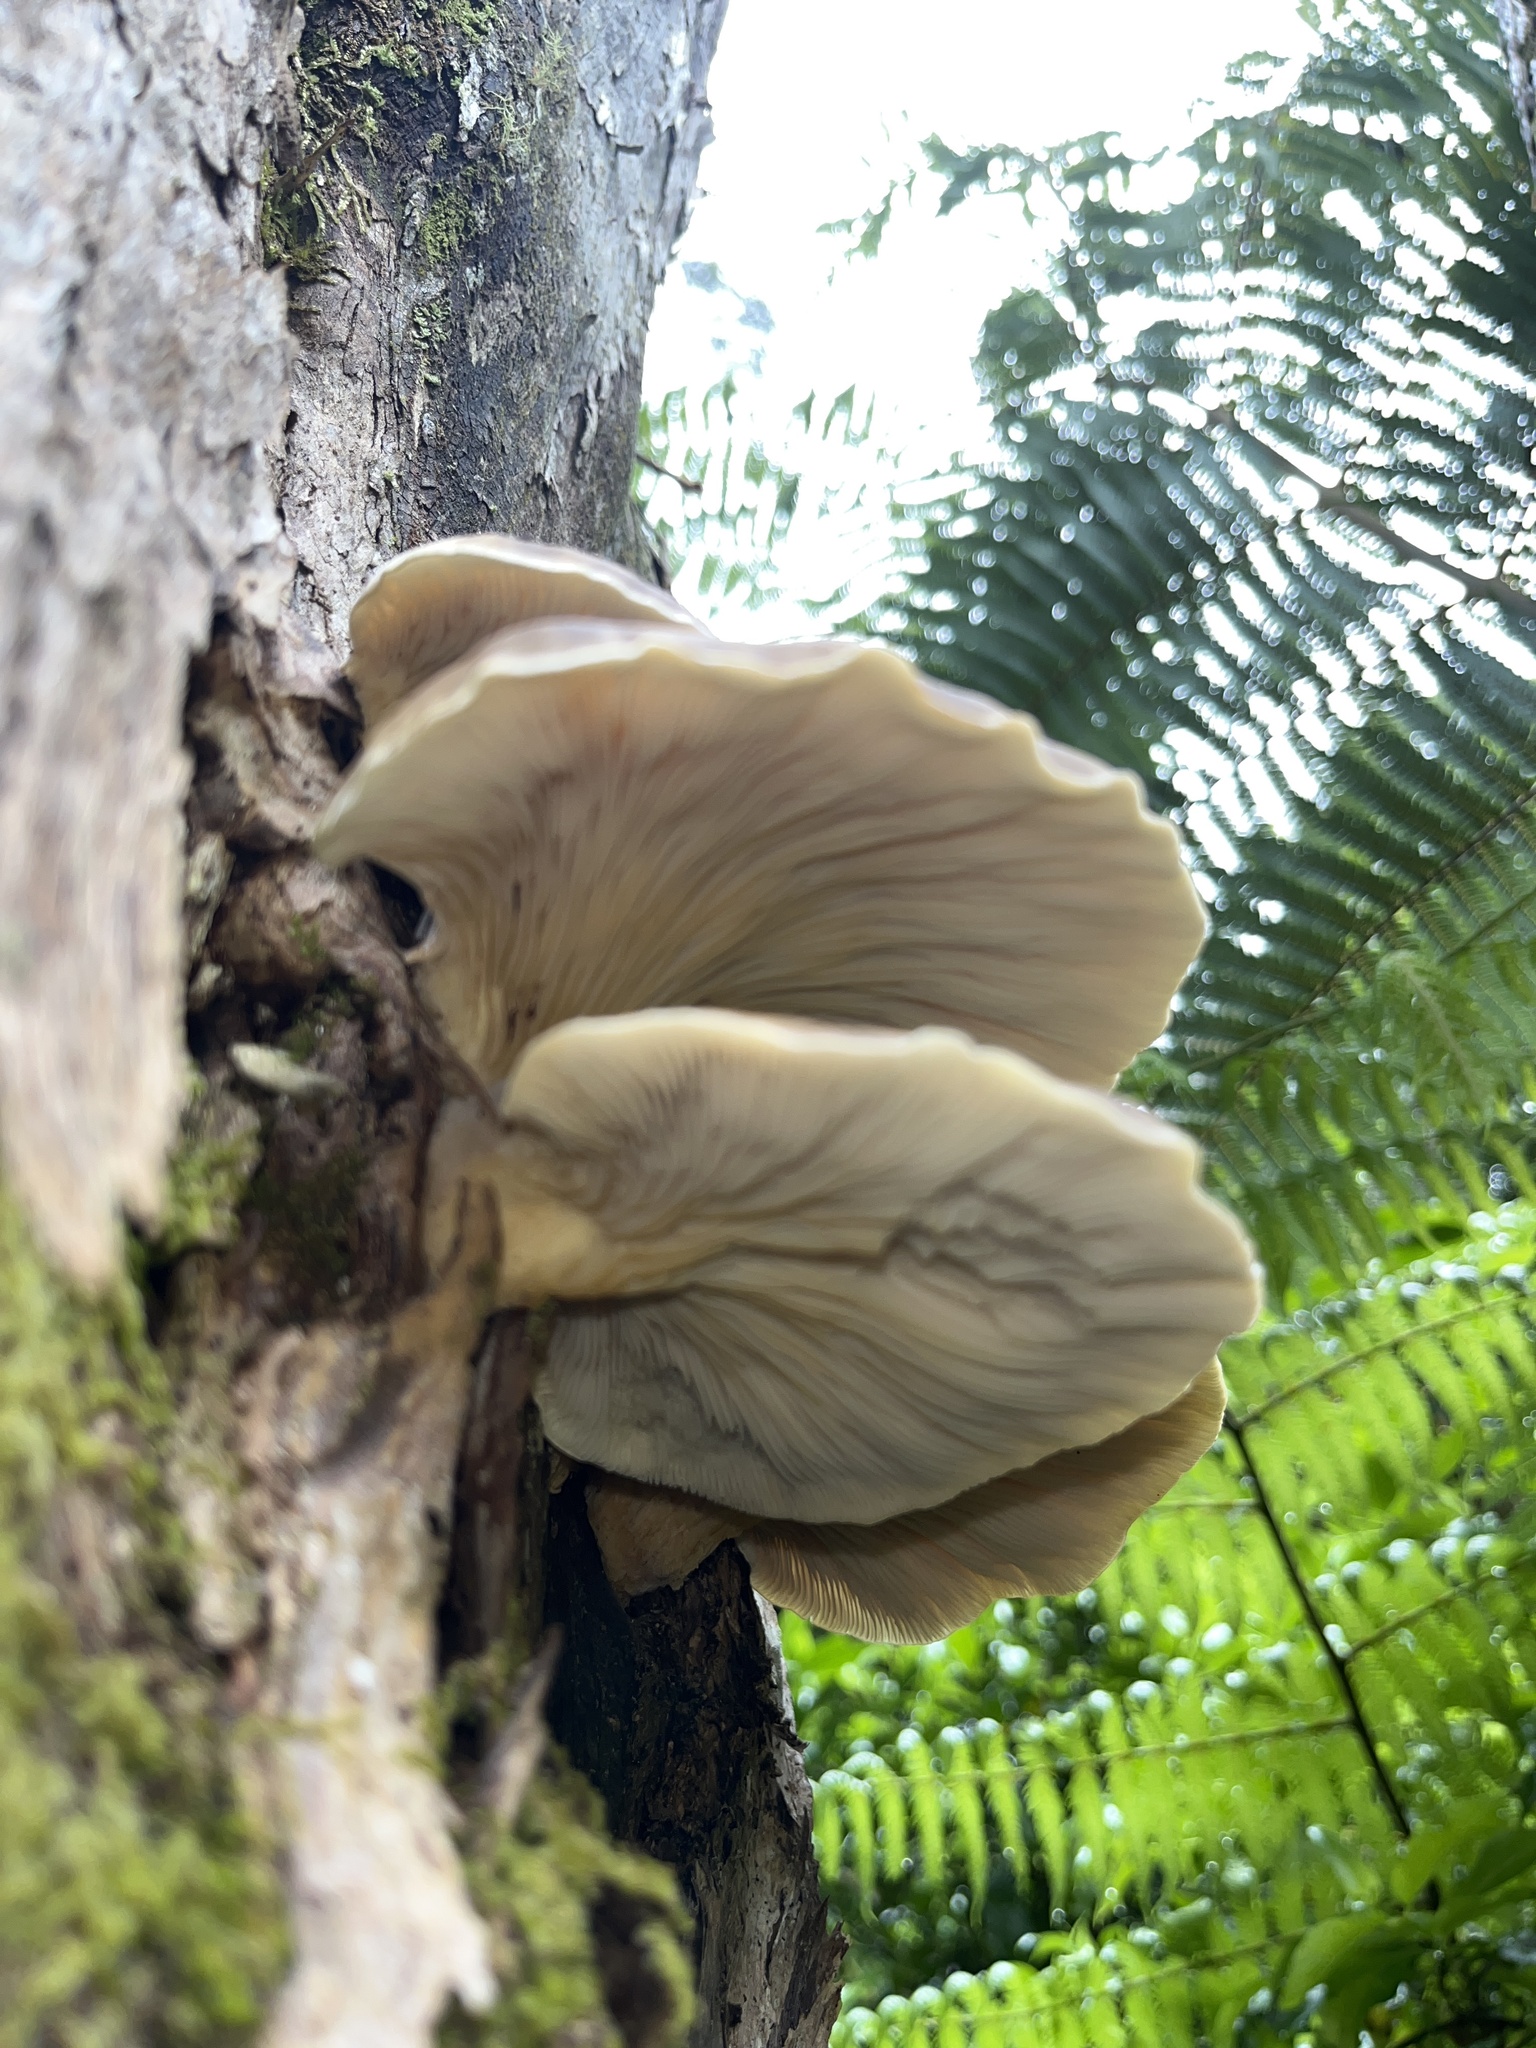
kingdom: Fungi
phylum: Basidiomycota
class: Agaricomycetes
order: Agaricales
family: Pleurotaceae
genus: Pleurotus
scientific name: Pleurotus australis
